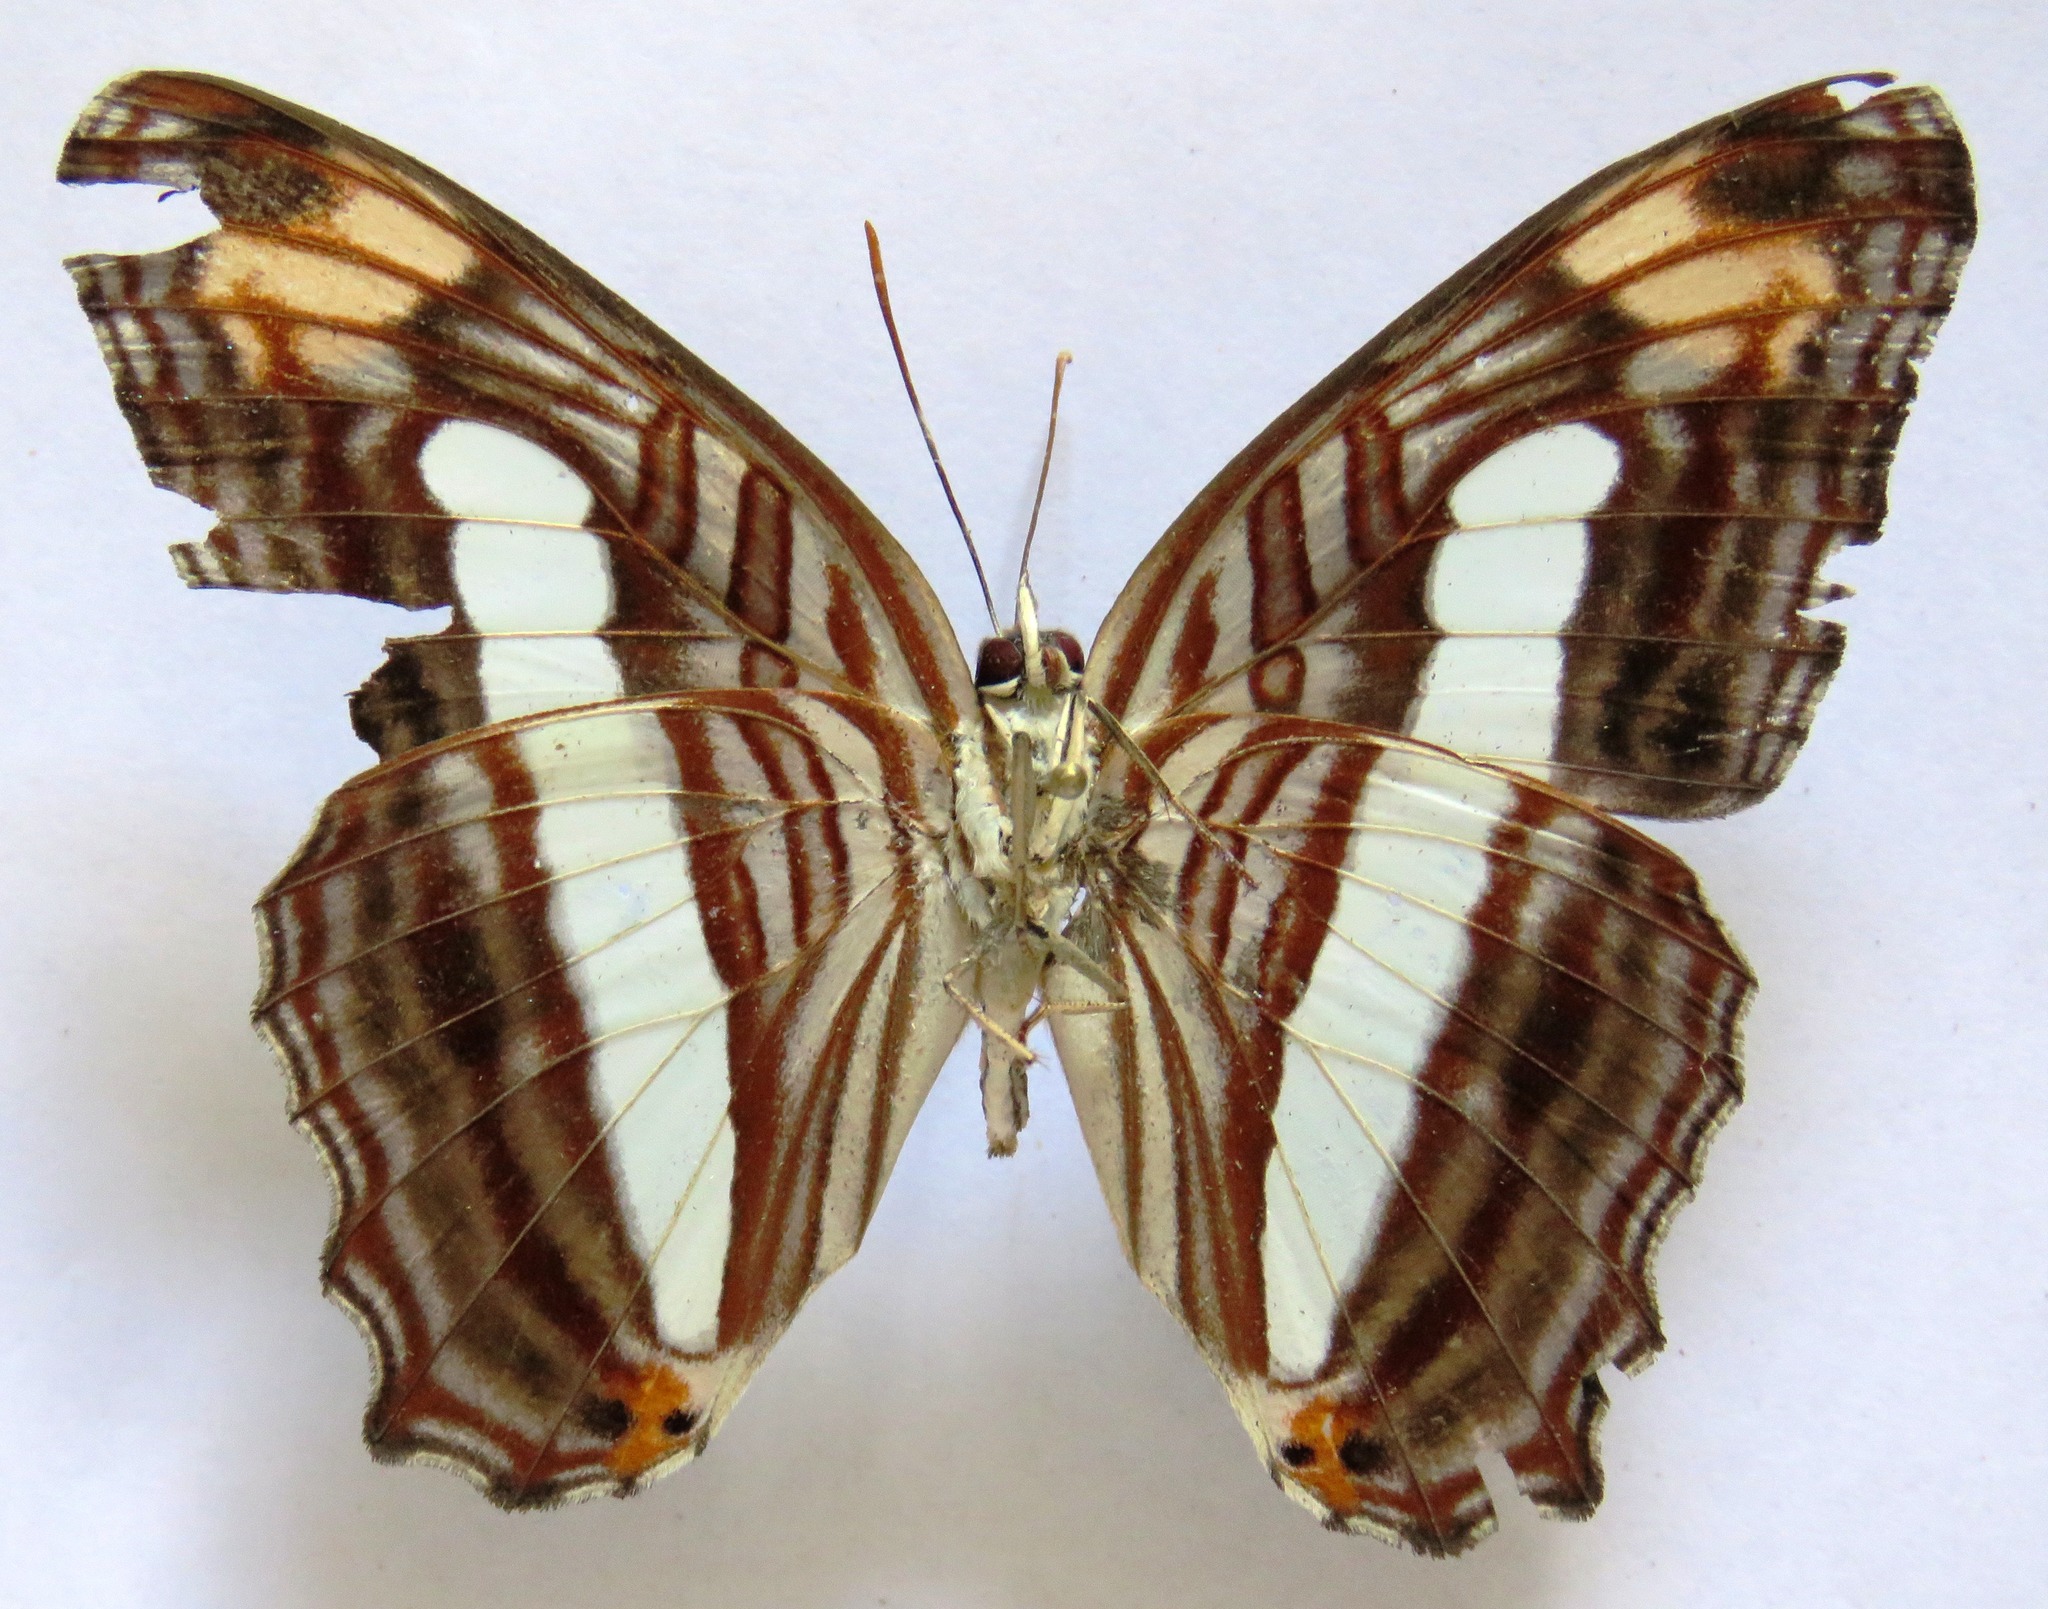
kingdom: Animalia
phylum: Arthropoda
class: Insecta
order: Lepidoptera
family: Nymphalidae
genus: Limenitis
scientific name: Limenitis iphiclus
